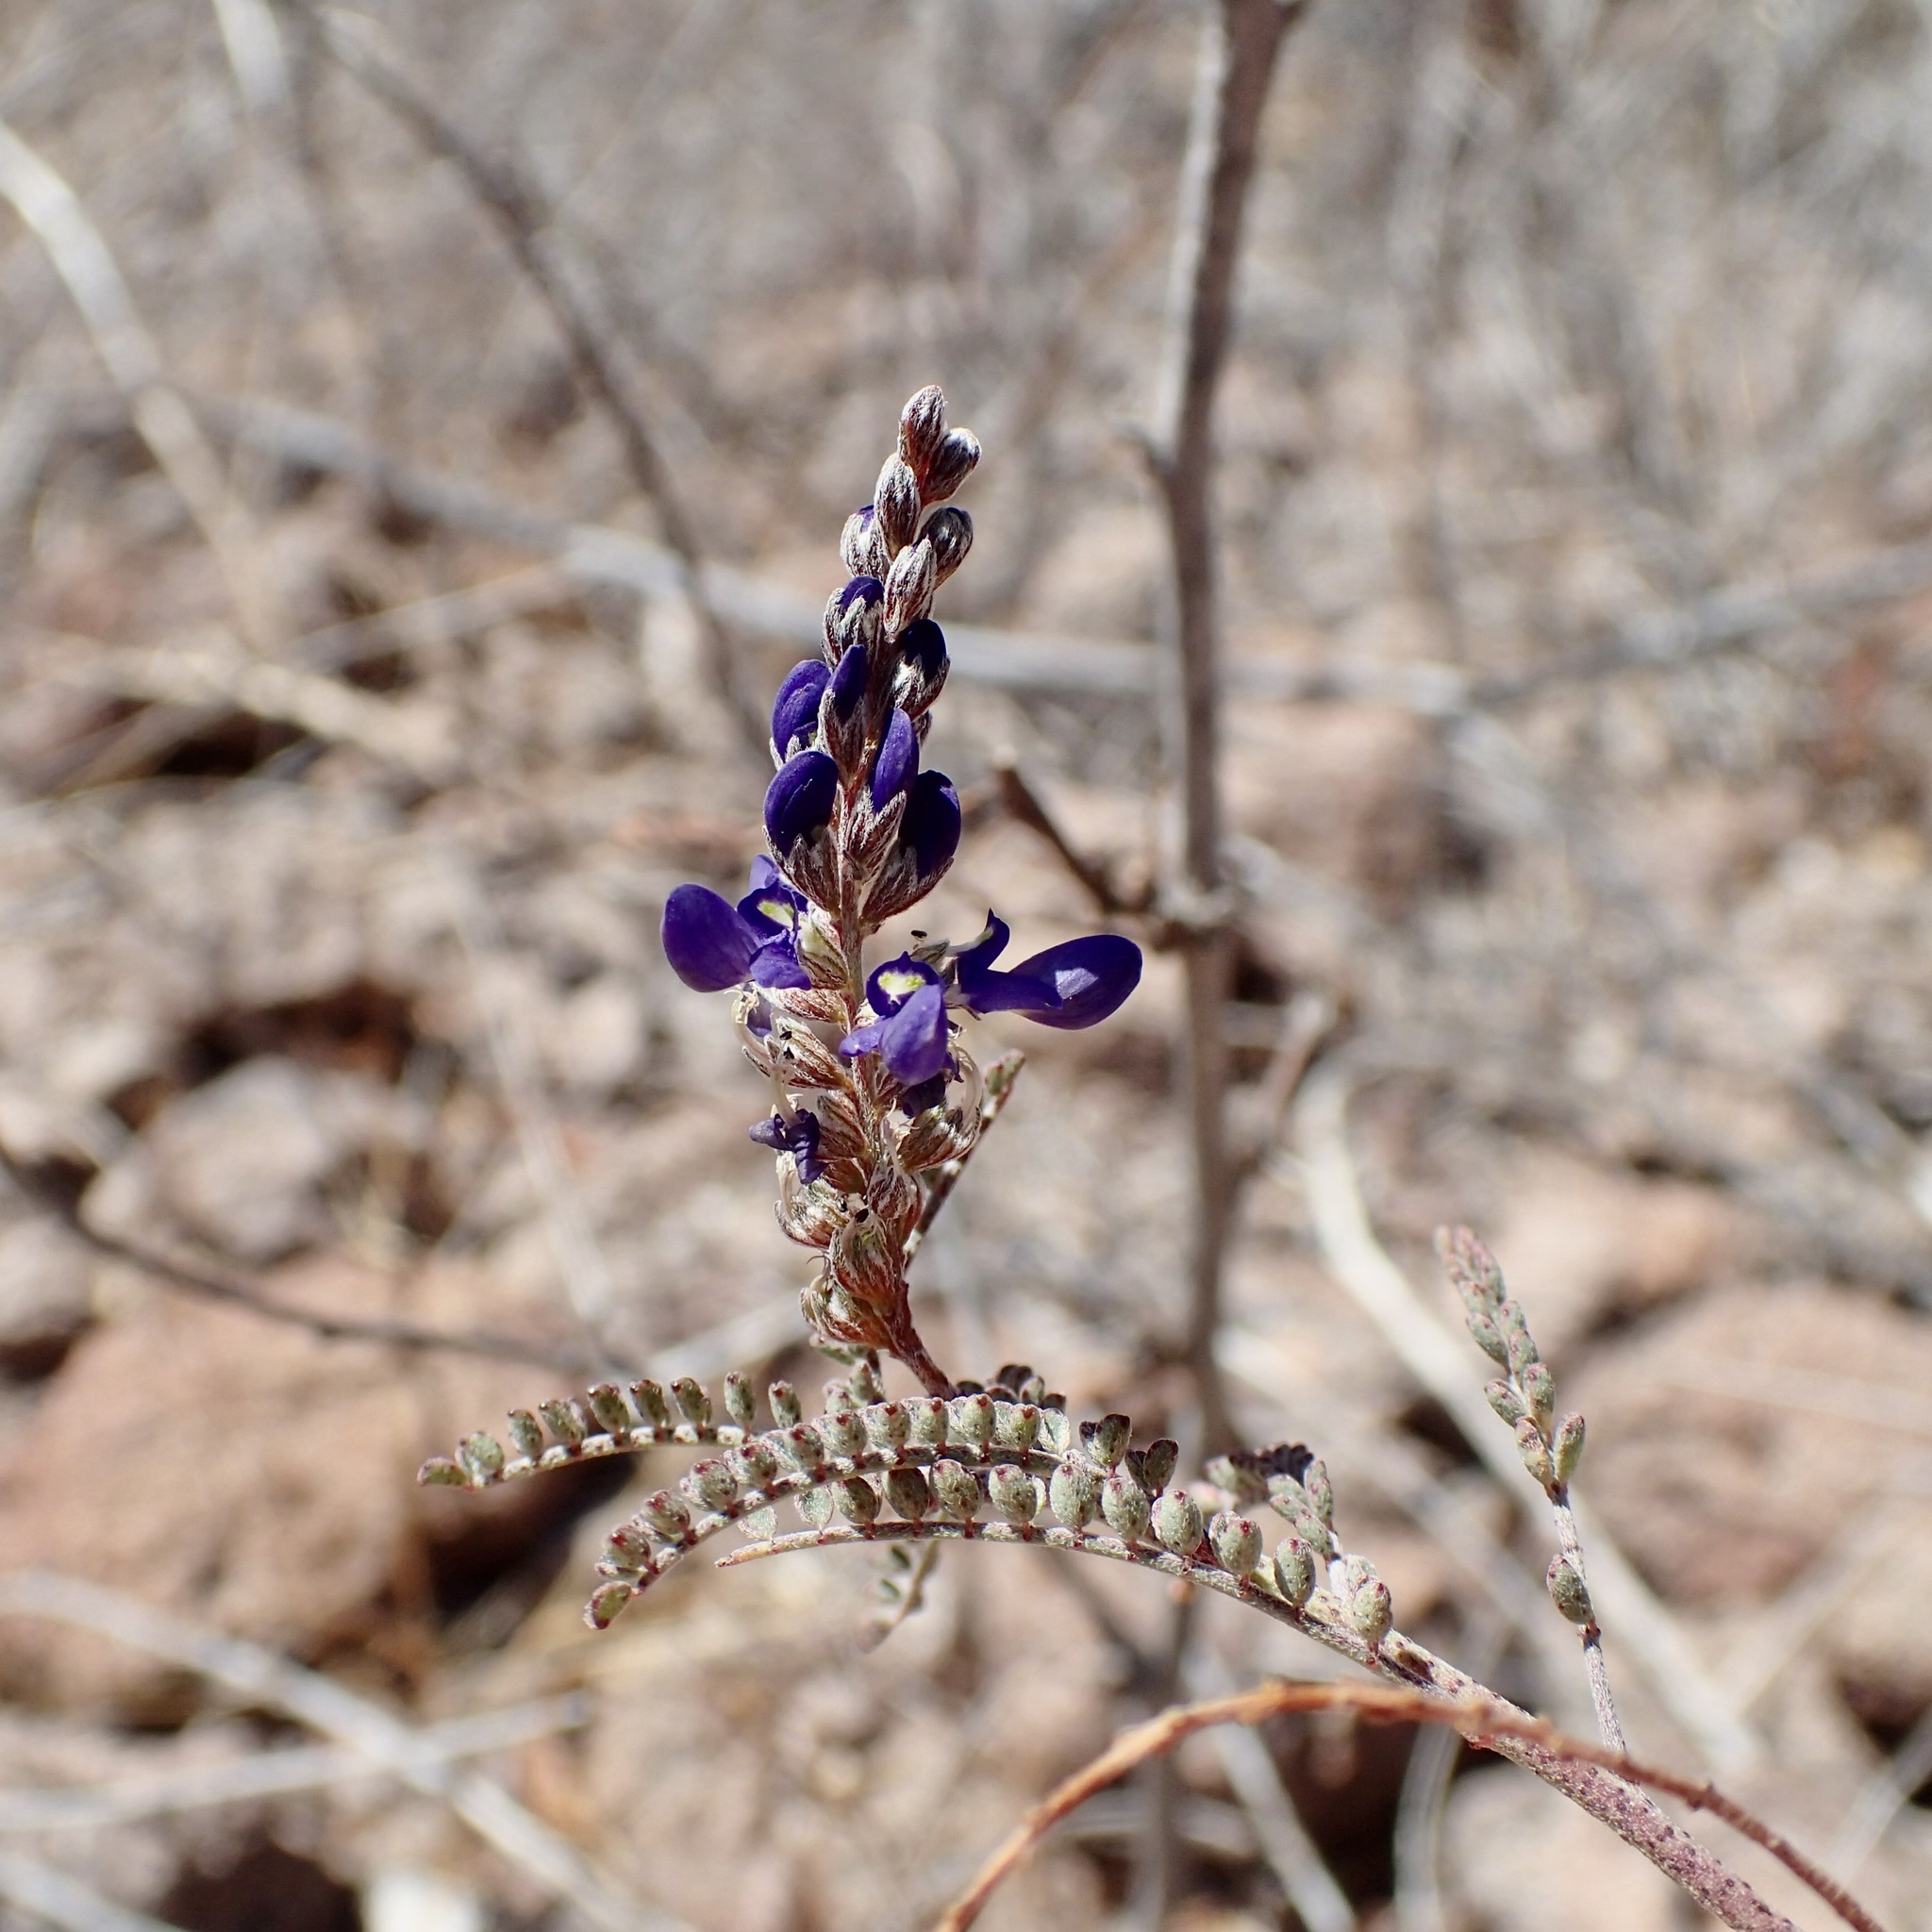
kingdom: Plantae
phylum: Tracheophyta
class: Magnoliopsida
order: Fabales
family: Fabaceae
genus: Marina
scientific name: Marina parryi
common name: Parry's marina
